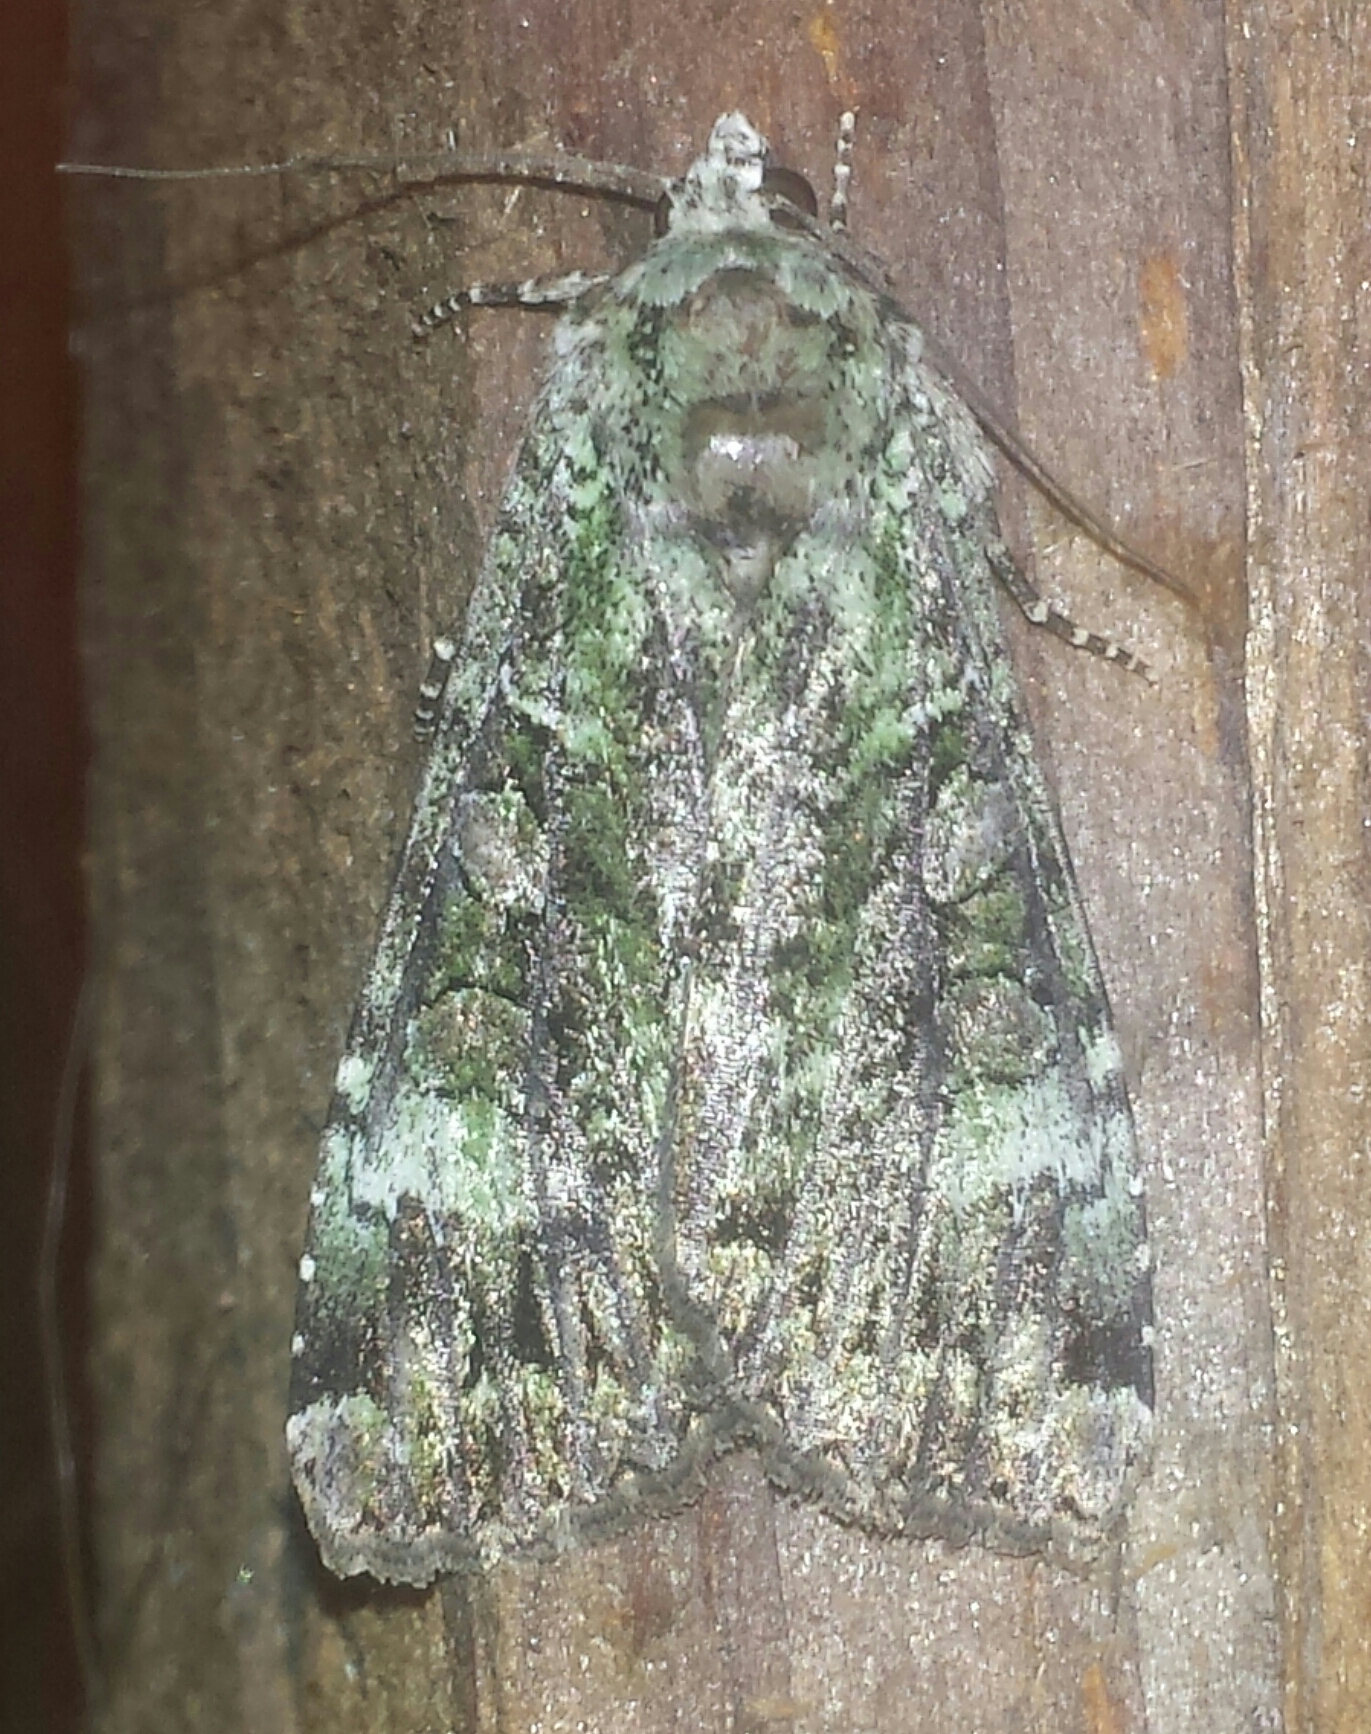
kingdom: Animalia
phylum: Arthropoda
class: Insecta
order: Lepidoptera
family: Noctuidae
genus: Anaplectoides
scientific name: Anaplectoides prasina
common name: Green arches
